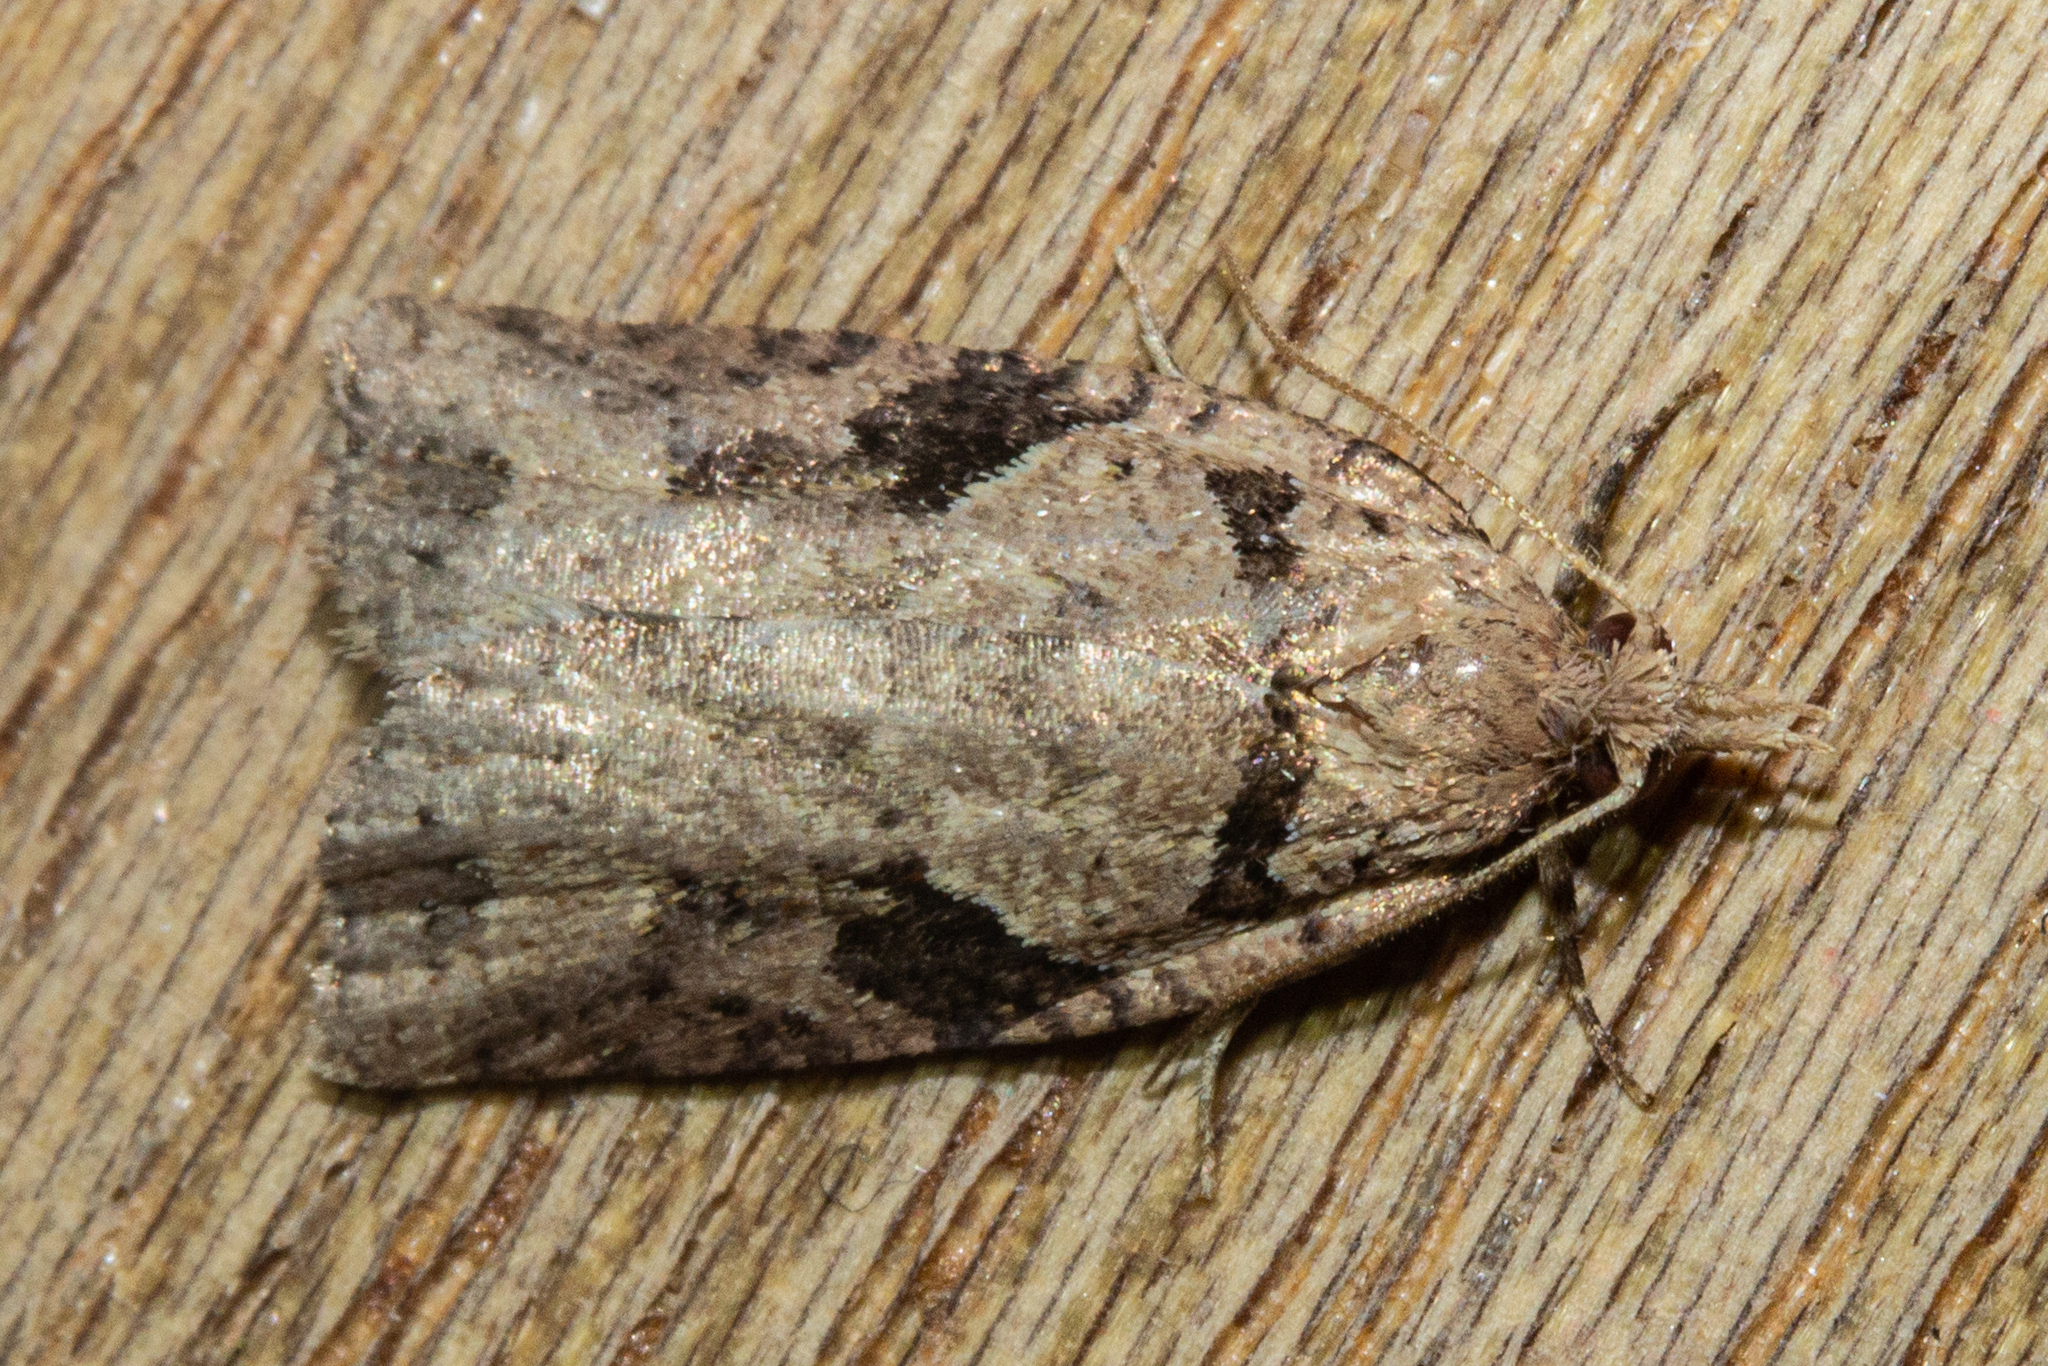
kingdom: Animalia
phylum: Arthropoda
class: Insecta
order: Lepidoptera
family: Tortricidae
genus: Ctenopseustis
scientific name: Ctenopseustis obliquana
